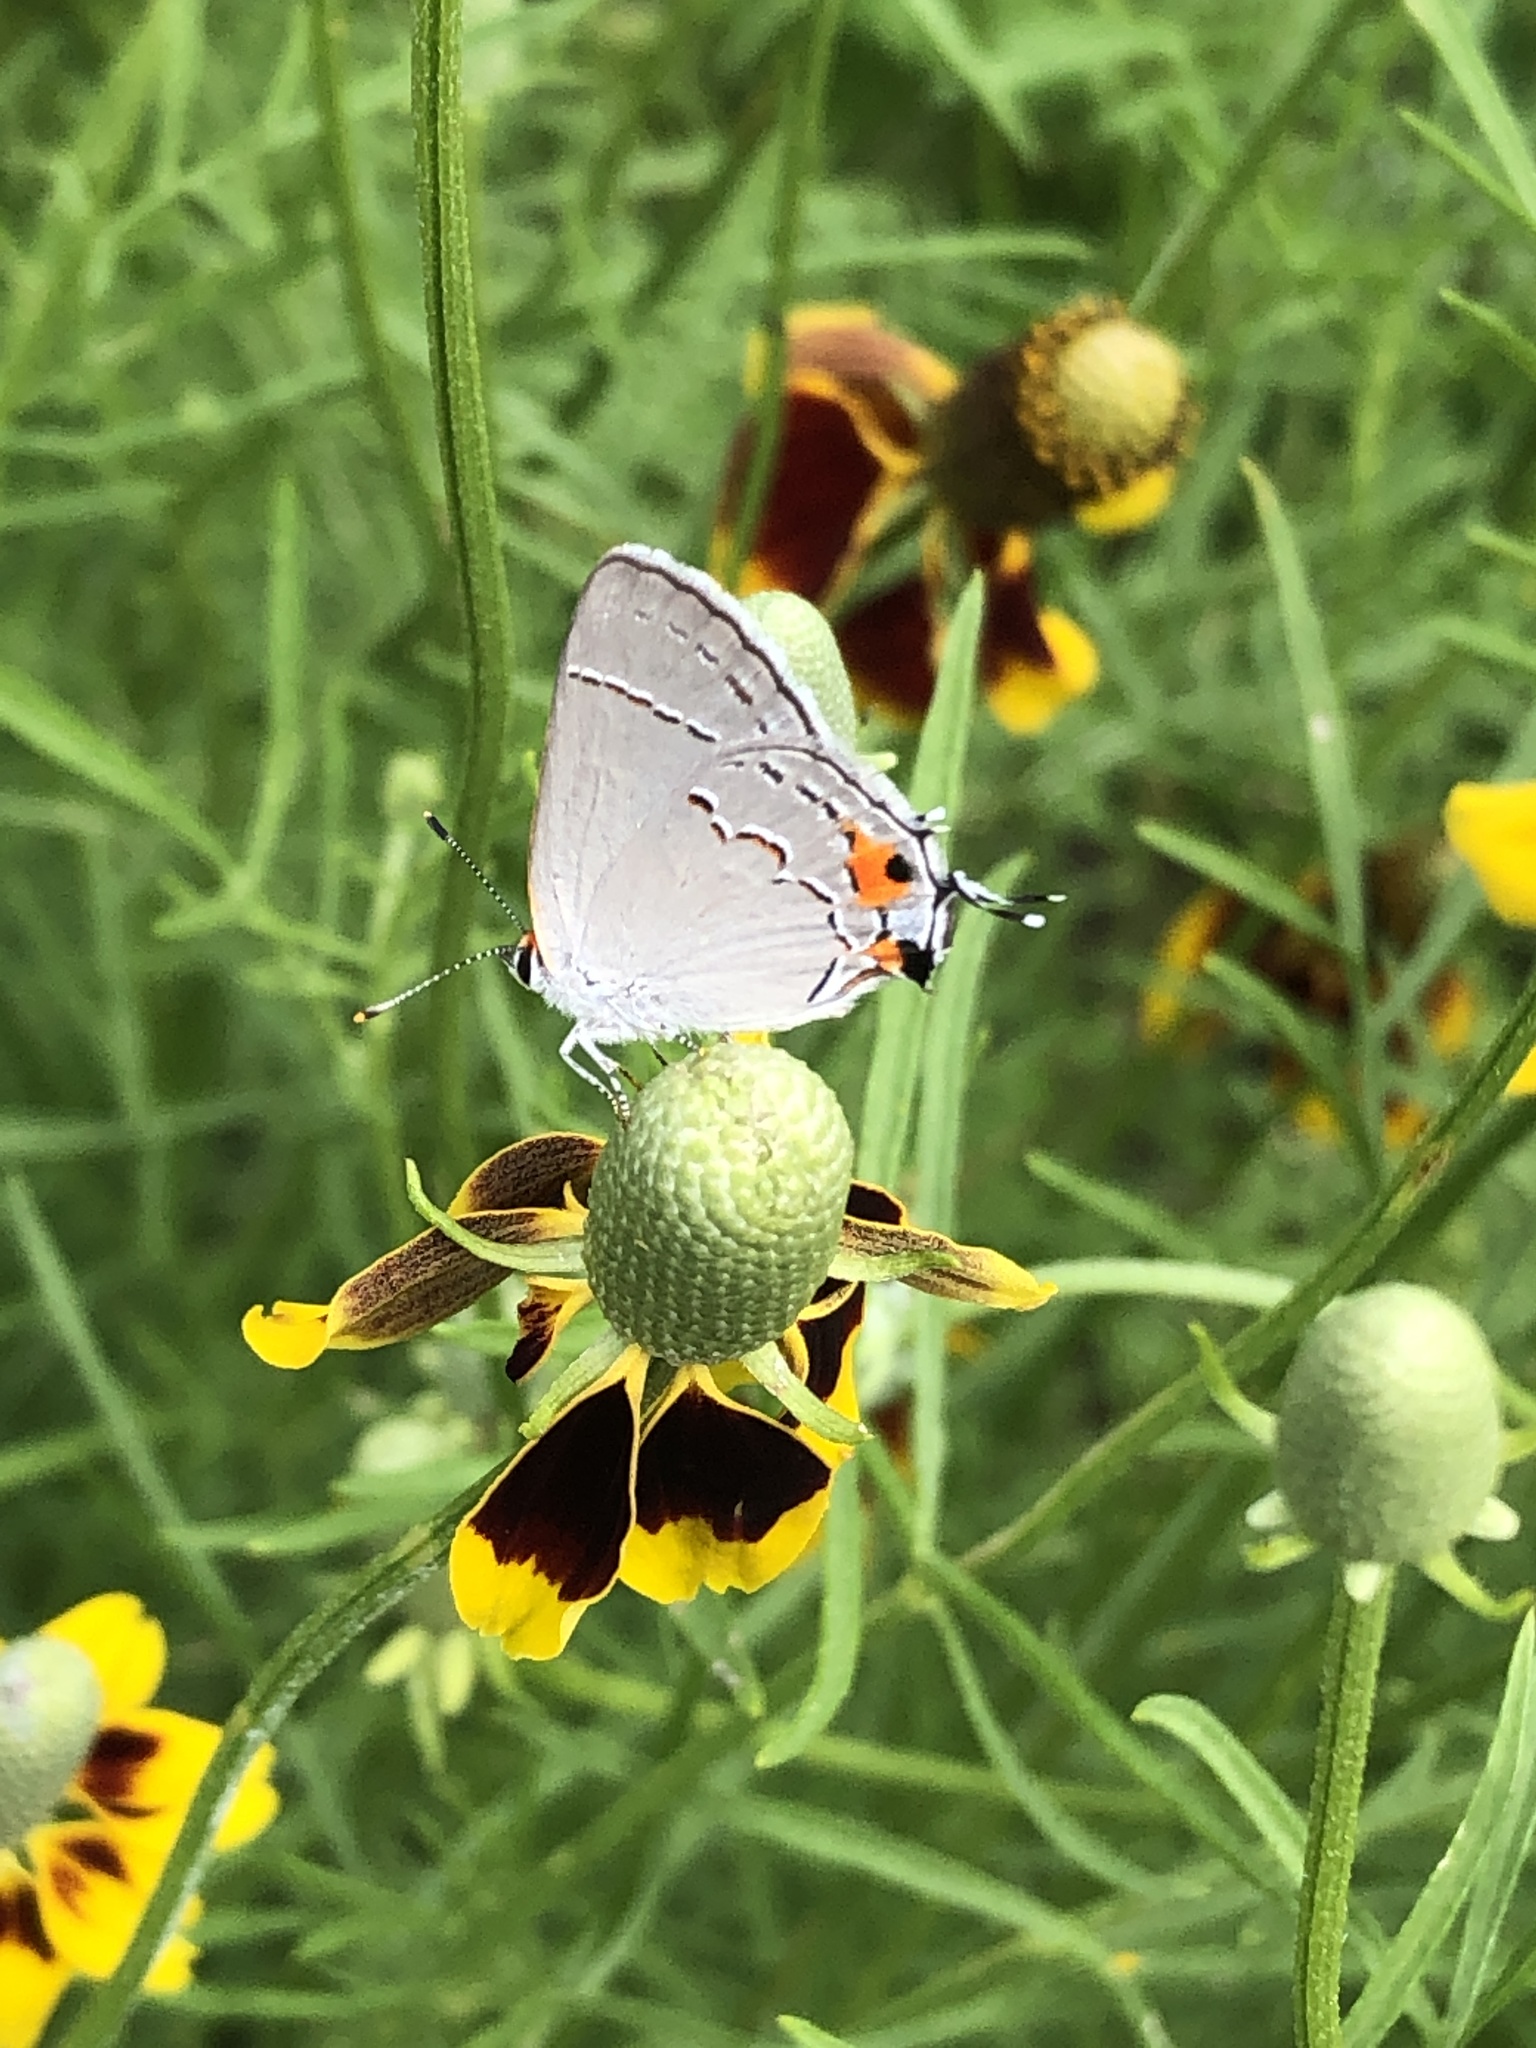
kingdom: Animalia
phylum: Arthropoda
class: Insecta
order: Lepidoptera
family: Lycaenidae
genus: Strymon
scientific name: Strymon melinus
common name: Gray hairstreak
